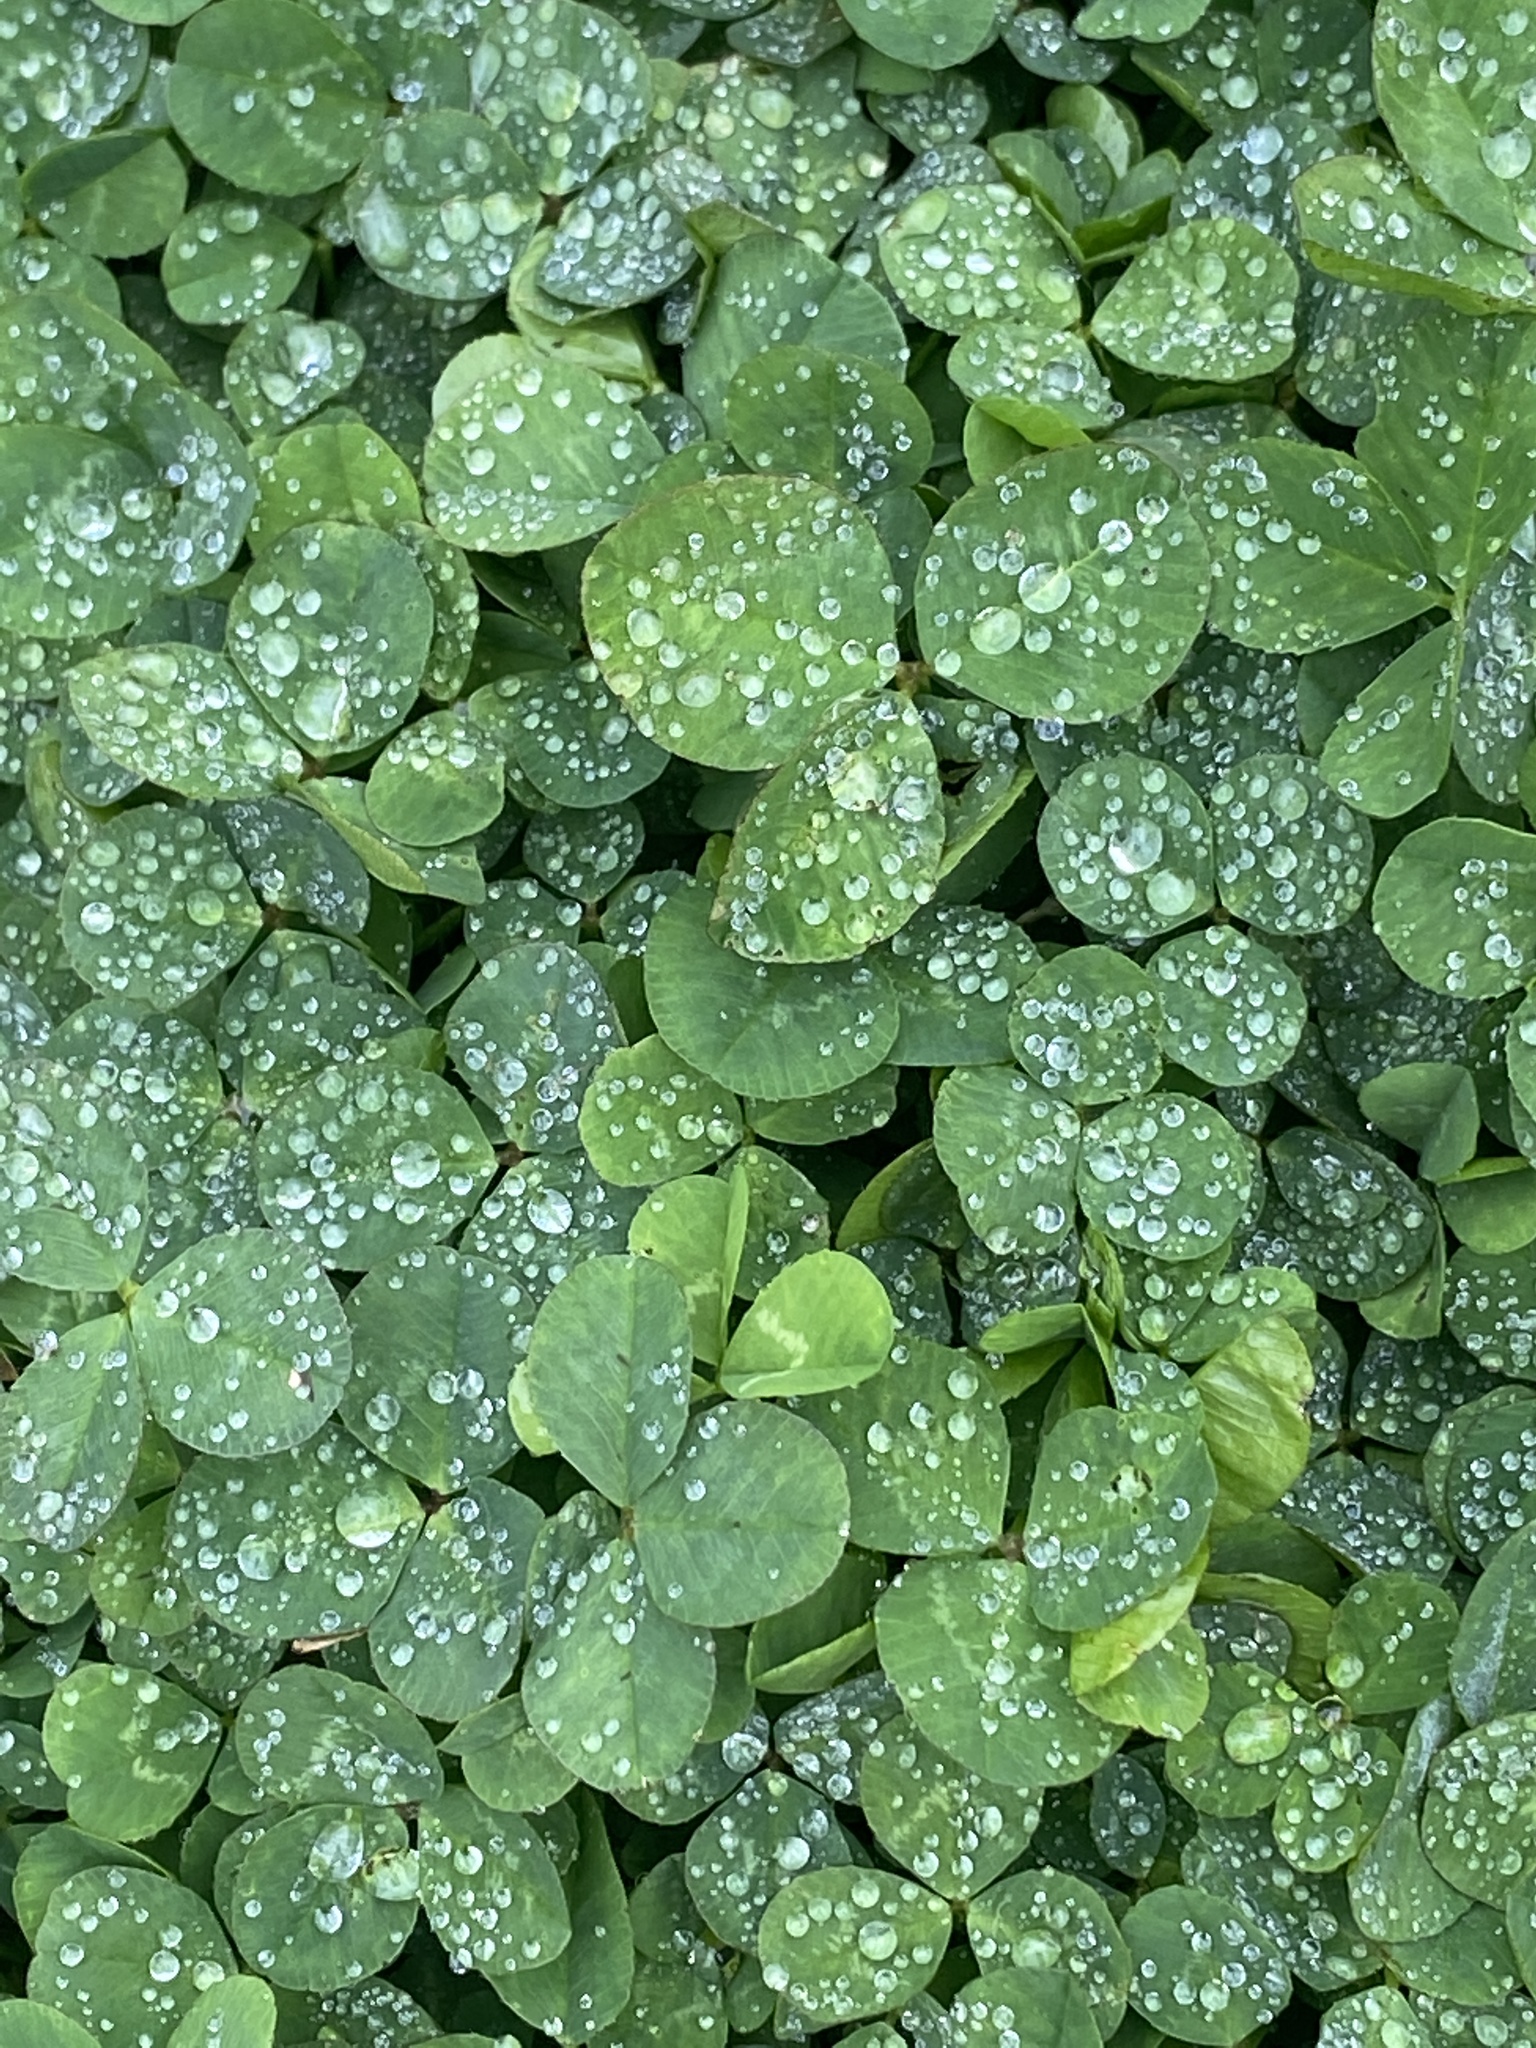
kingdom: Plantae
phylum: Tracheophyta
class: Magnoliopsida
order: Fabales
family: Fabaceae
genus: Trifolium
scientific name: Trifolium repens
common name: White clover
